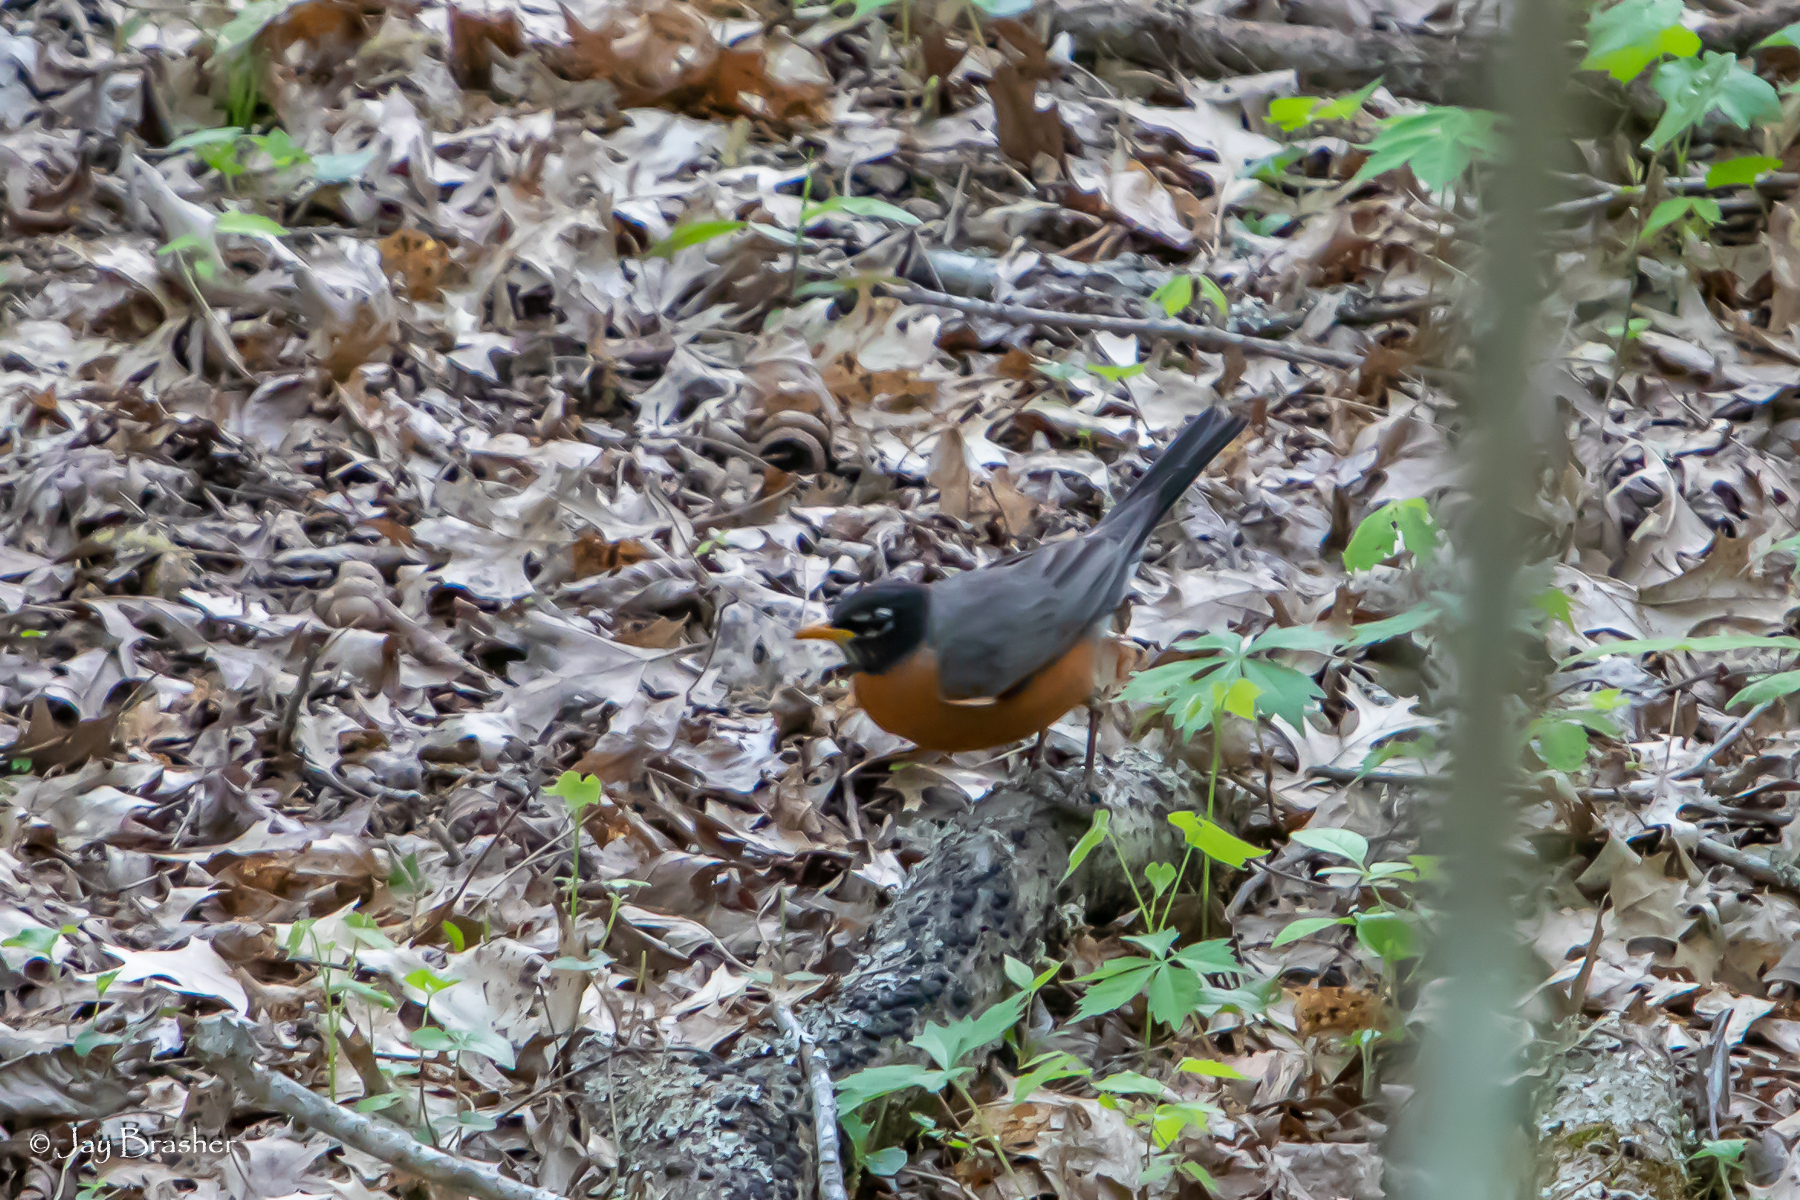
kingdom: Animalia
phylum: Chordata
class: Aves
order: Passeriformes
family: Turdidae
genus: Turdus
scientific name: Turdus migratorius
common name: American robin
